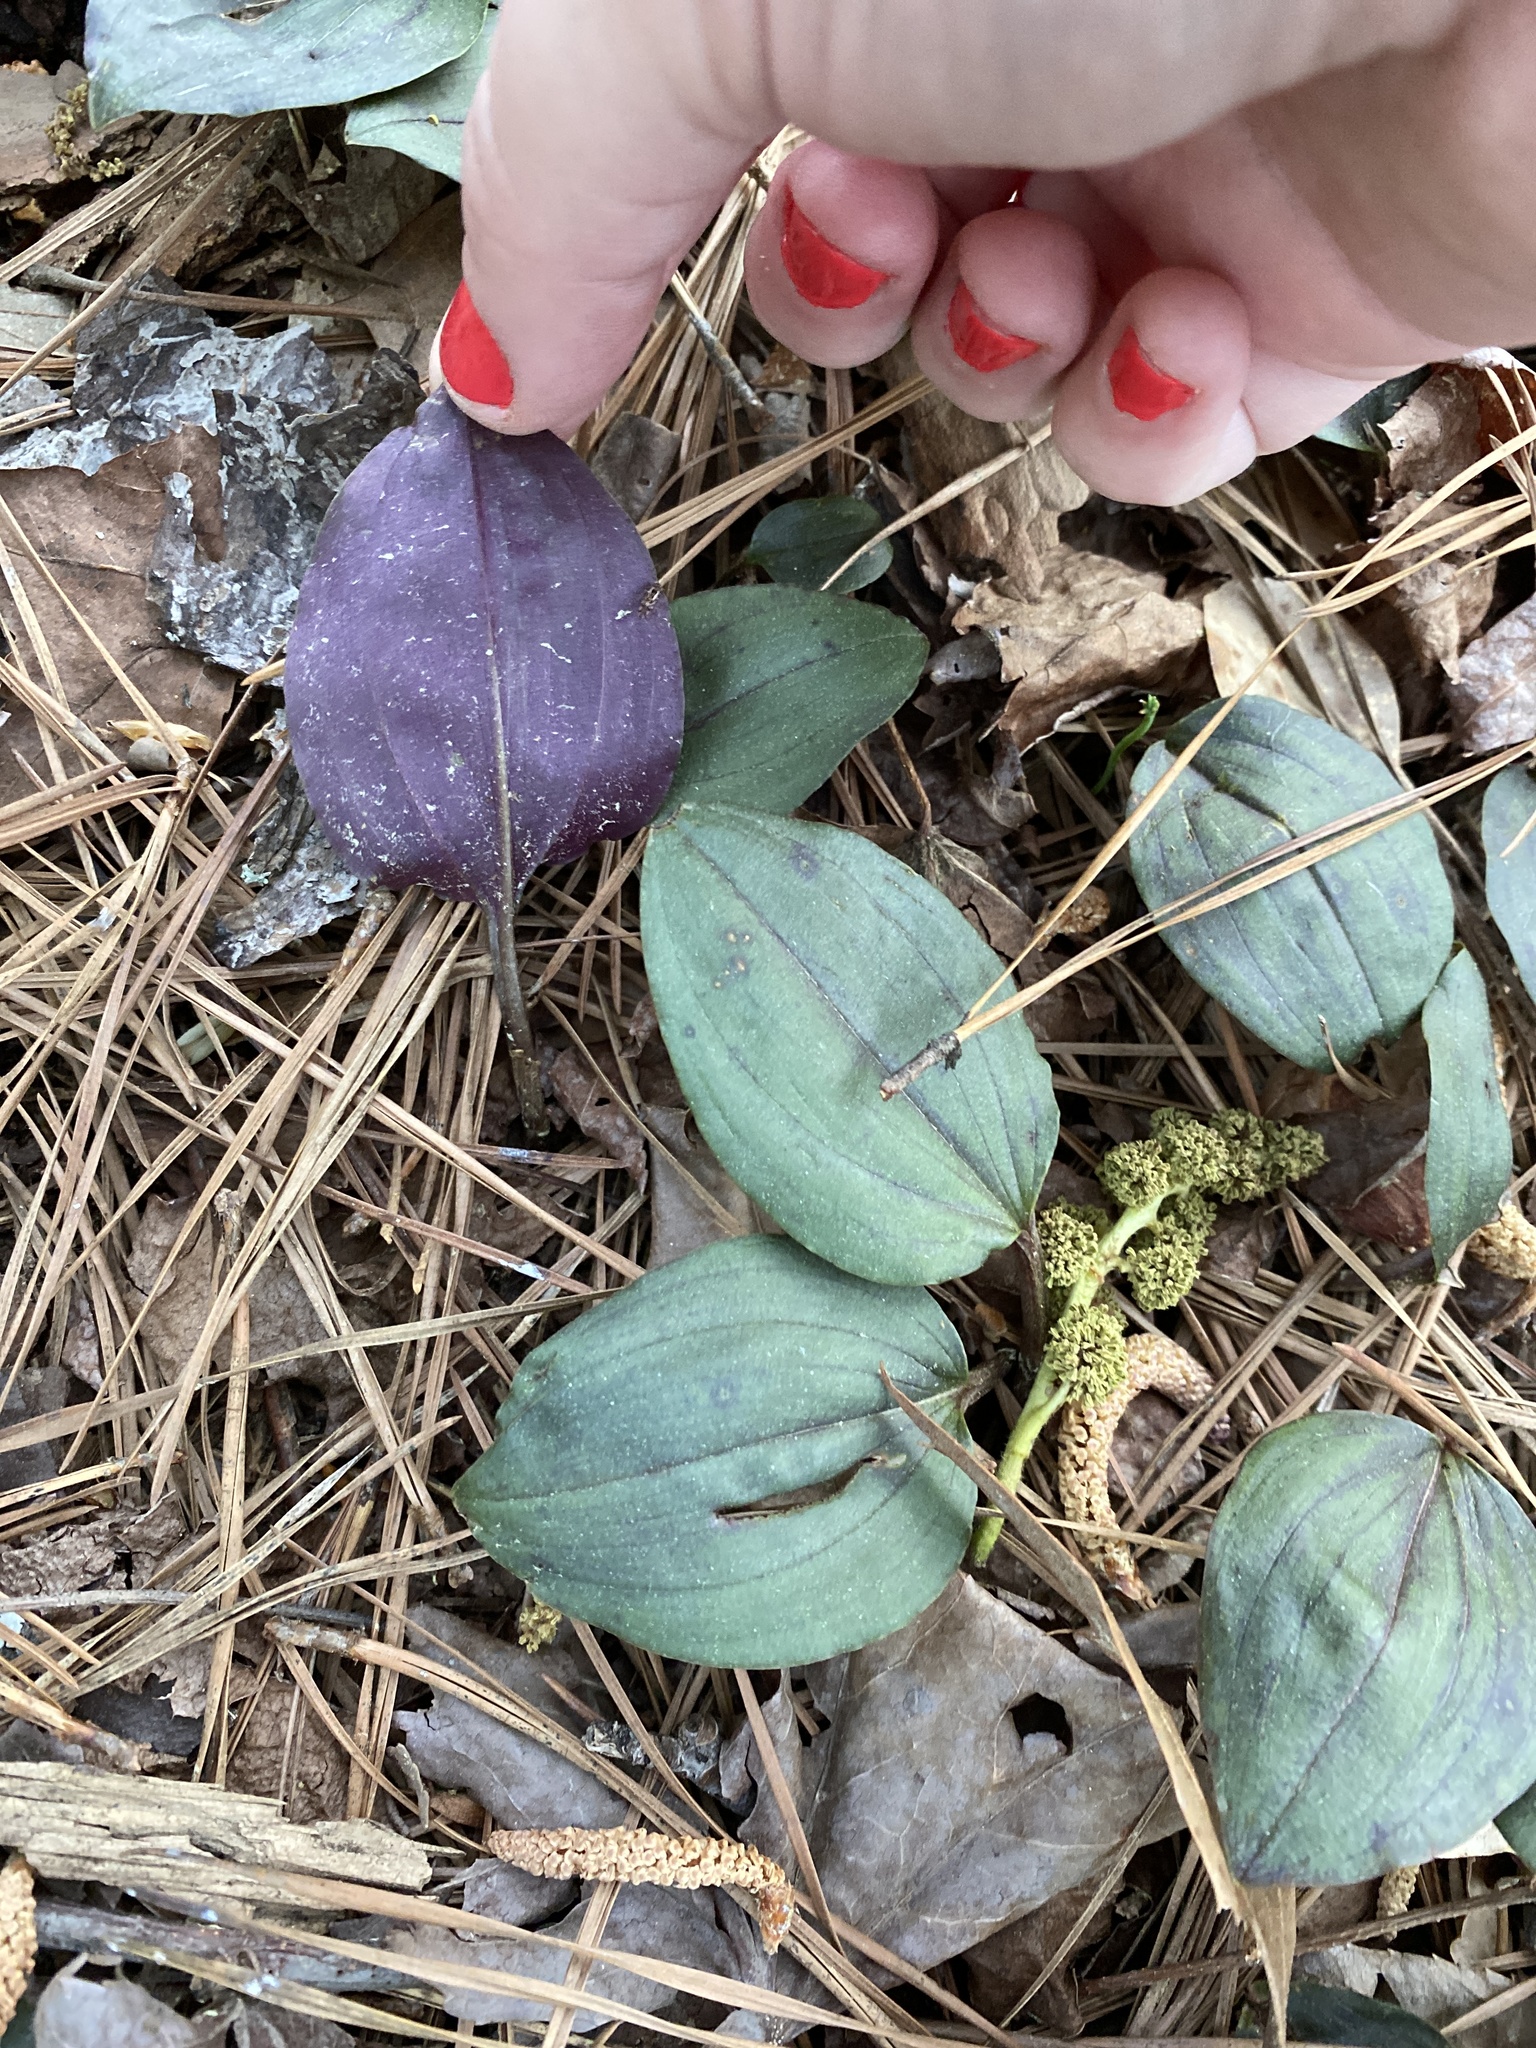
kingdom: Plantae
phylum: Tracheophyta
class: Liliopsida
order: Asparagales
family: Orchidaceae
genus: Tipularia
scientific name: Tipularia discolor
